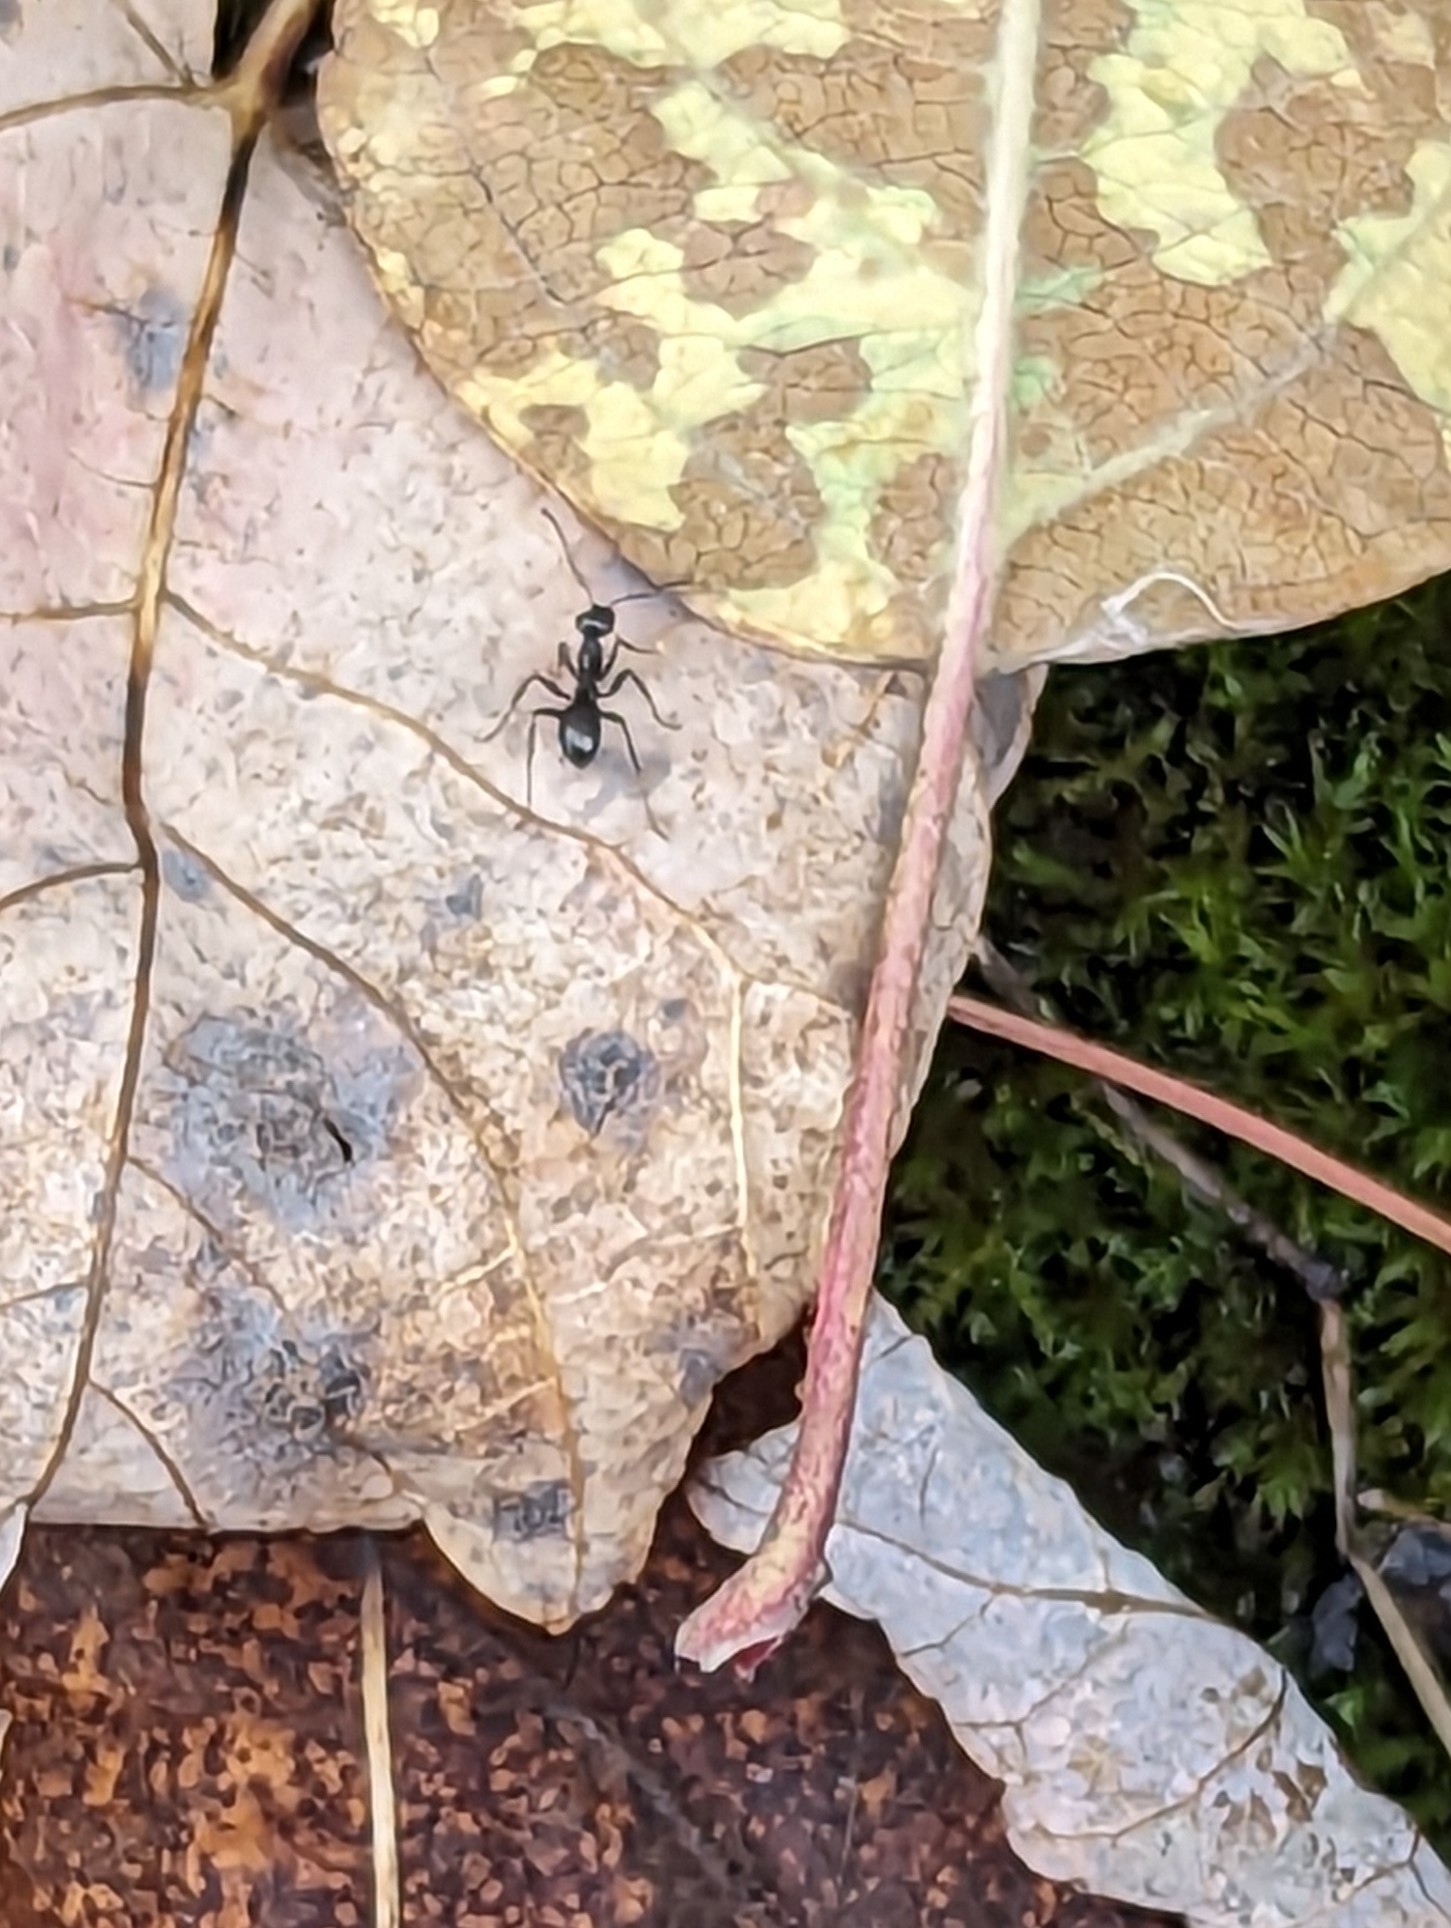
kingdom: Animalia
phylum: Arthropoda
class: Insecta
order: Hymenoptera
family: Formicidae
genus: Formica
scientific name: Formica
